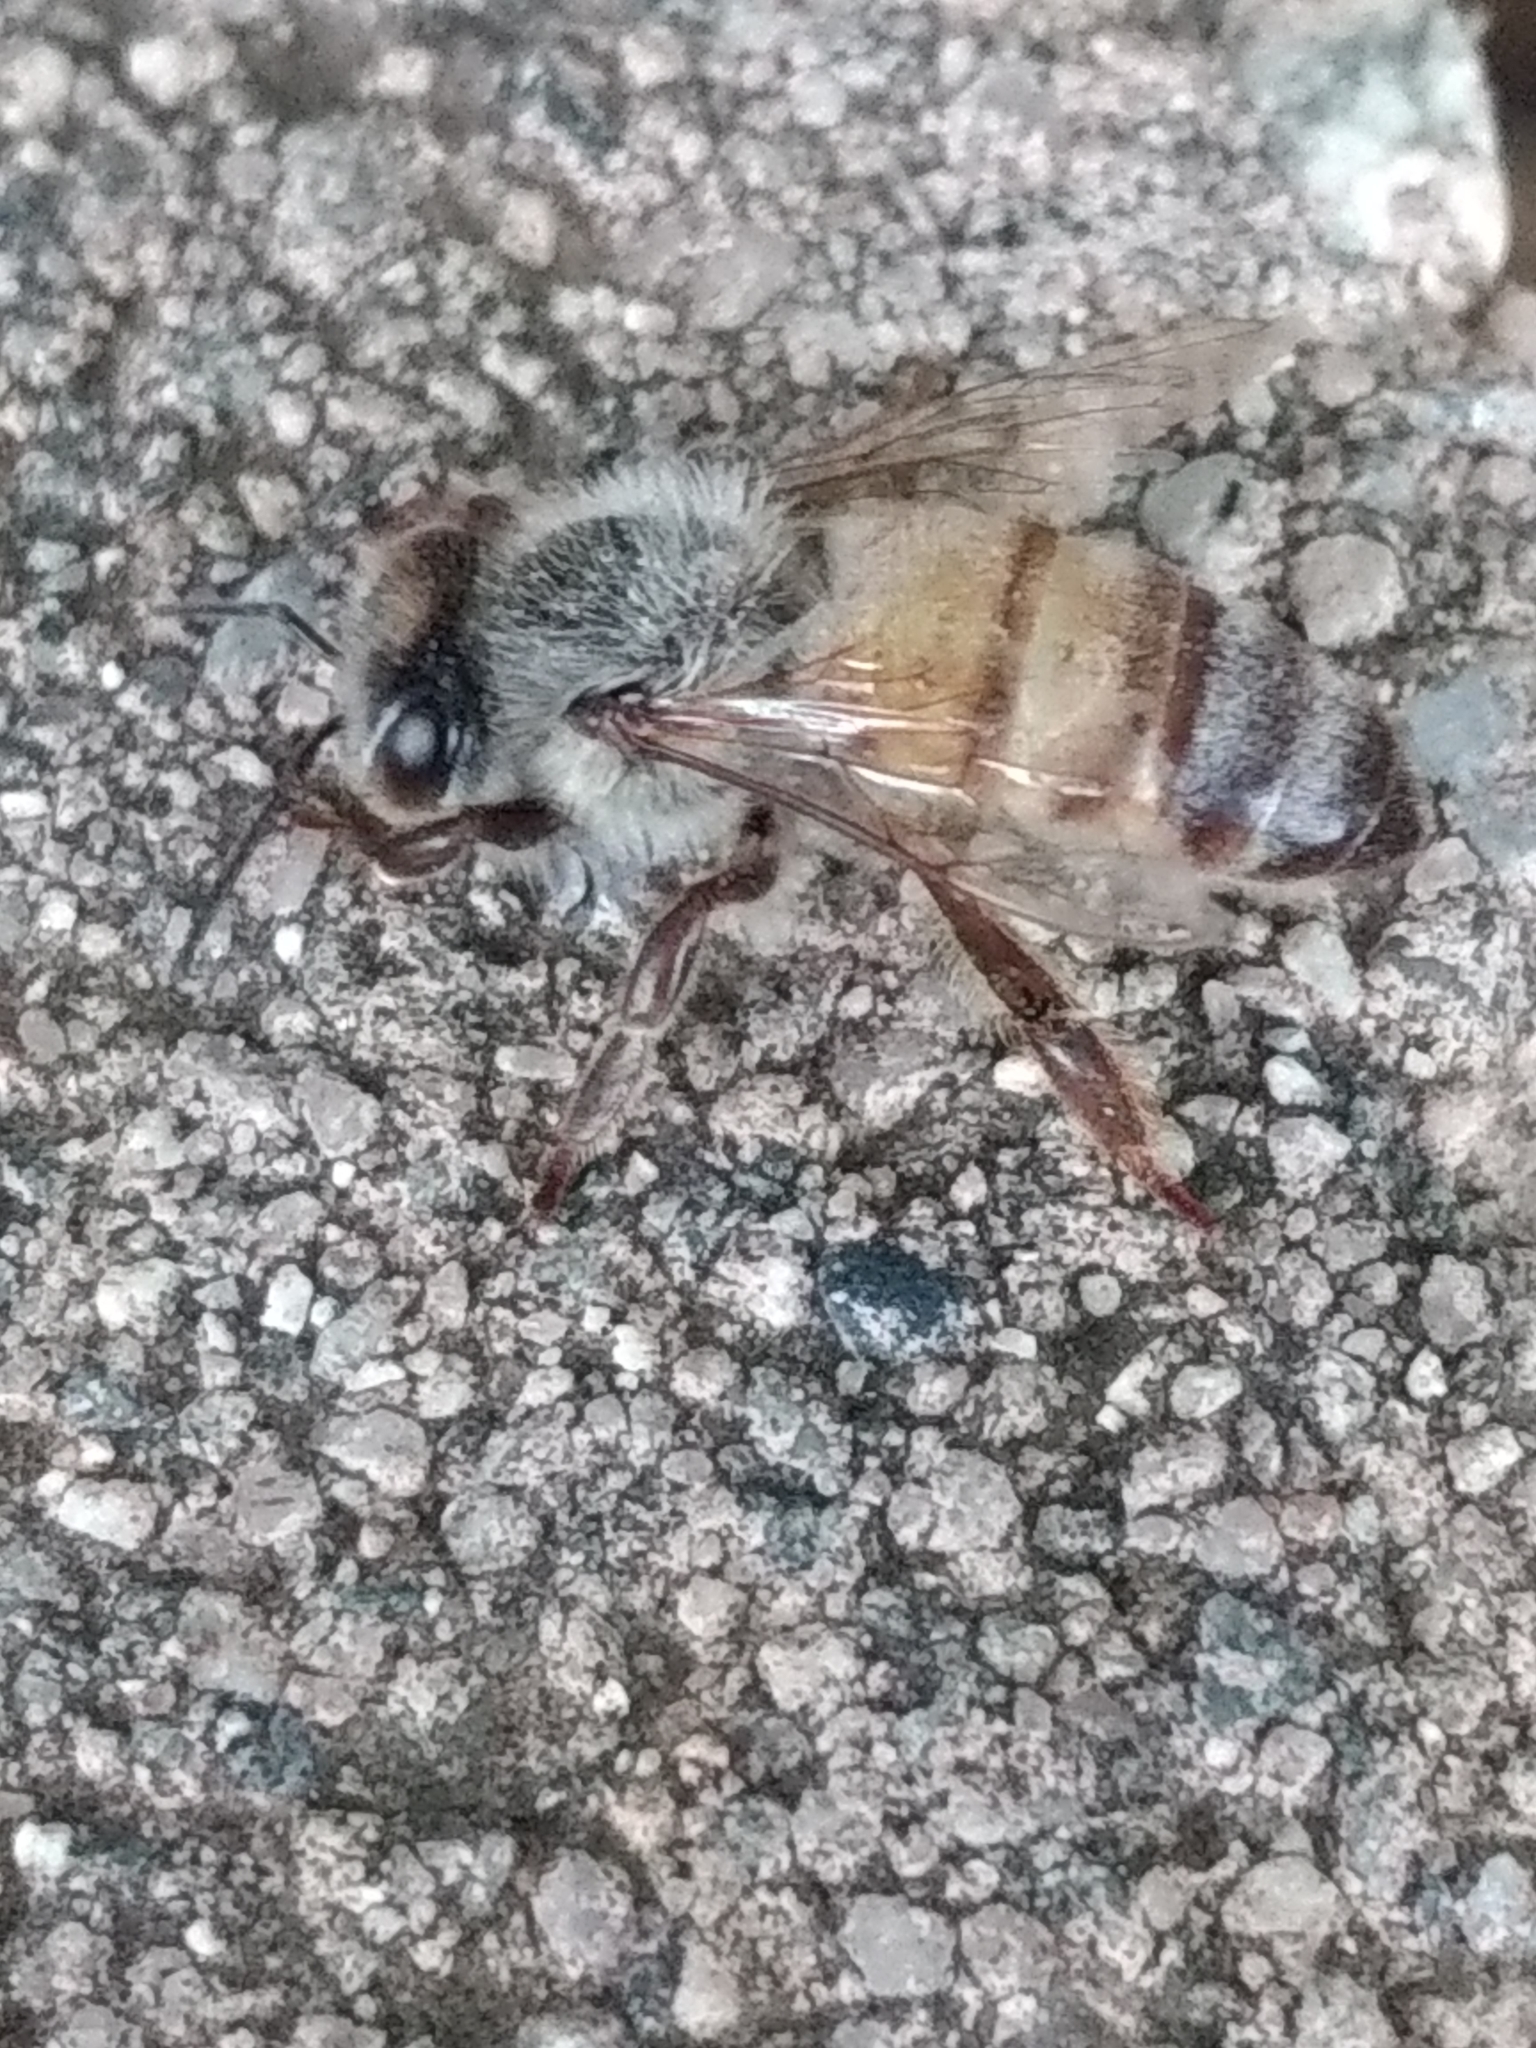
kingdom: Animalia
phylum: Arthropoda
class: Insecta
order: Hymenoptera
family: Apidae
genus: Apis
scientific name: Apis mellifera
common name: Honey bee
